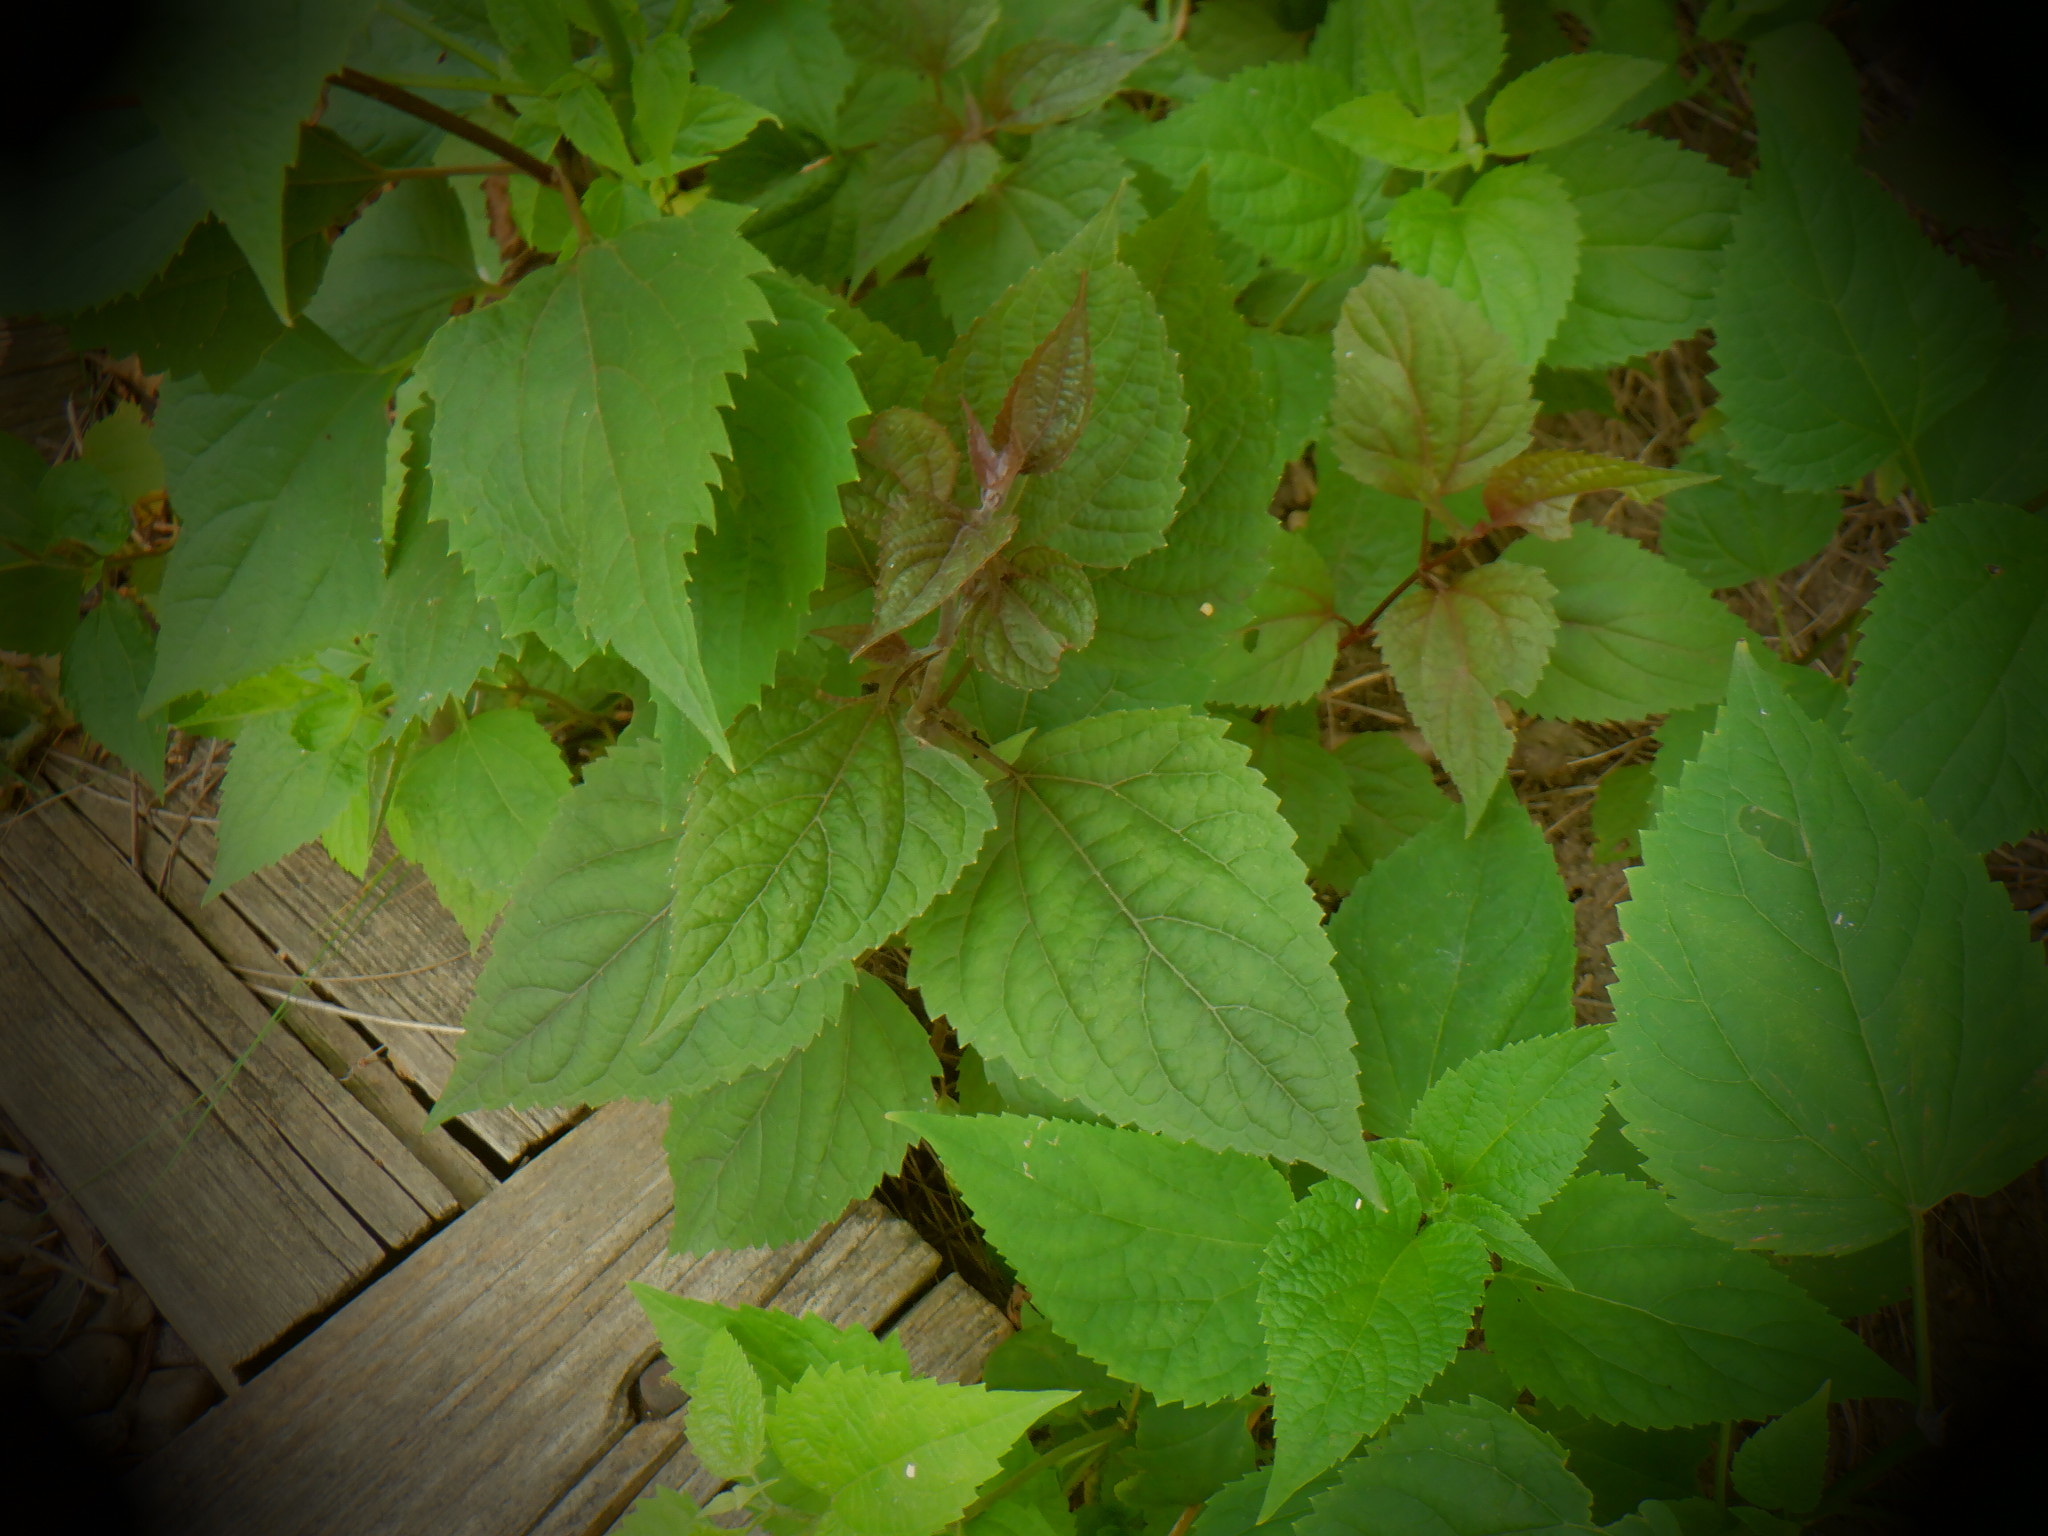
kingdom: Plantae
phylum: Tracheophyta
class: Magnoliopsida
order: Asterales
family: Asteraceae
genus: Ageratina
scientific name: Ageratina altissima
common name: White snakeroot
